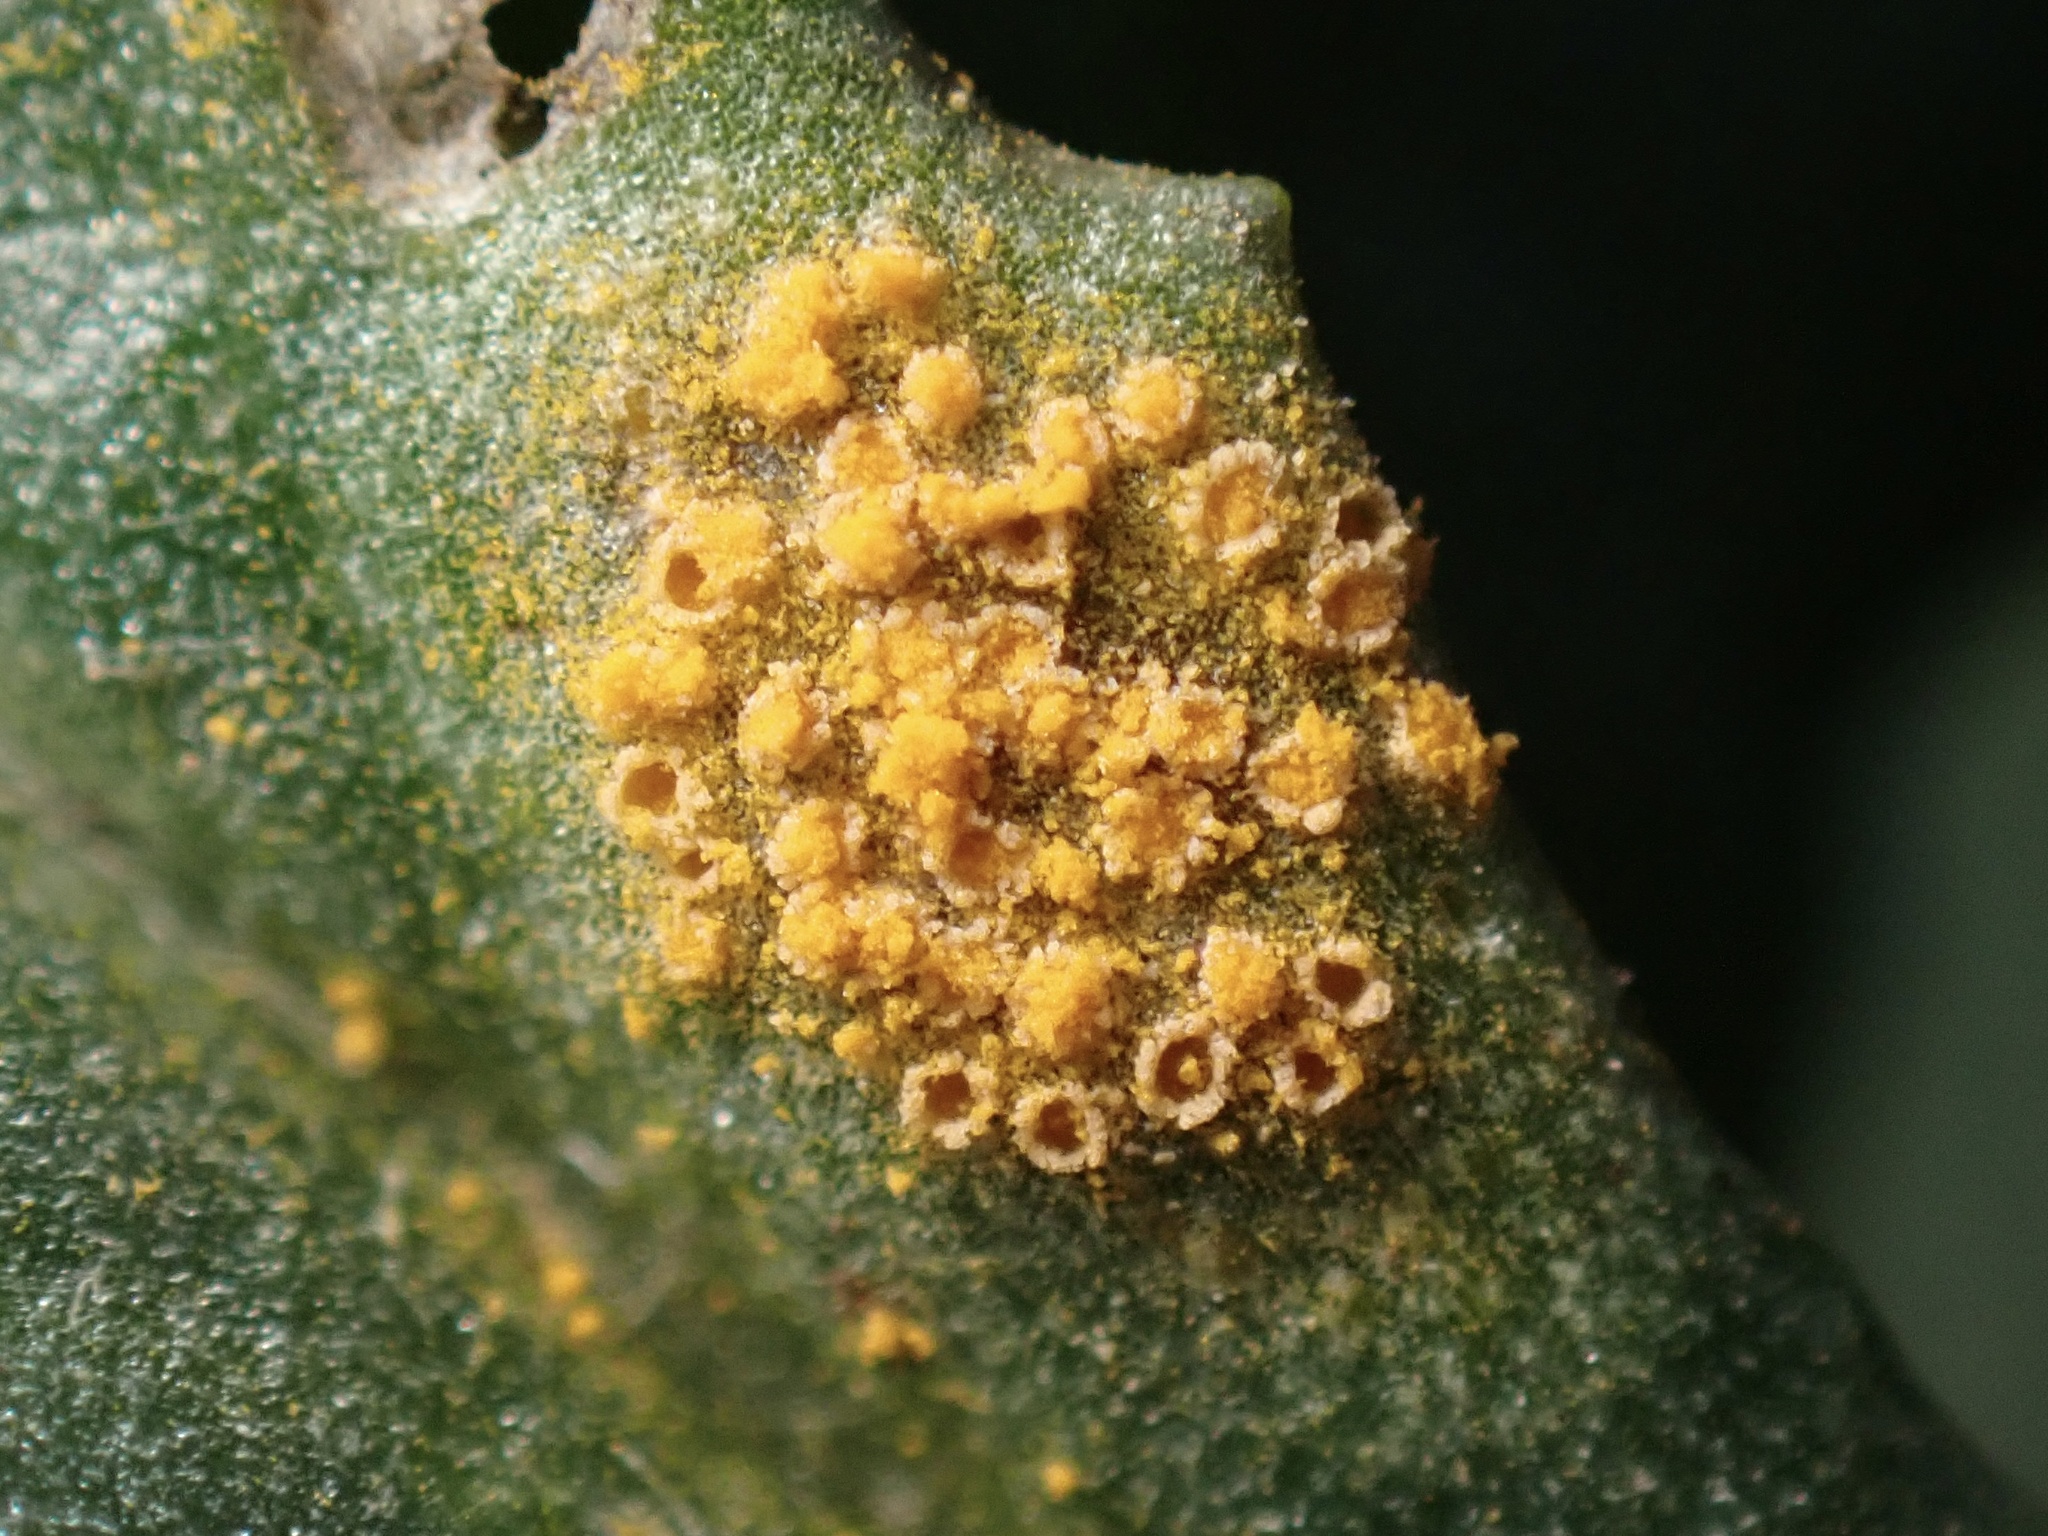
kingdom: Fungi
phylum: Basidiomycota
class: Pucciniomycetes
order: Pucciniales
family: Pucciniaceae
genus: Puccinia
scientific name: Puccinia lagenophorae
